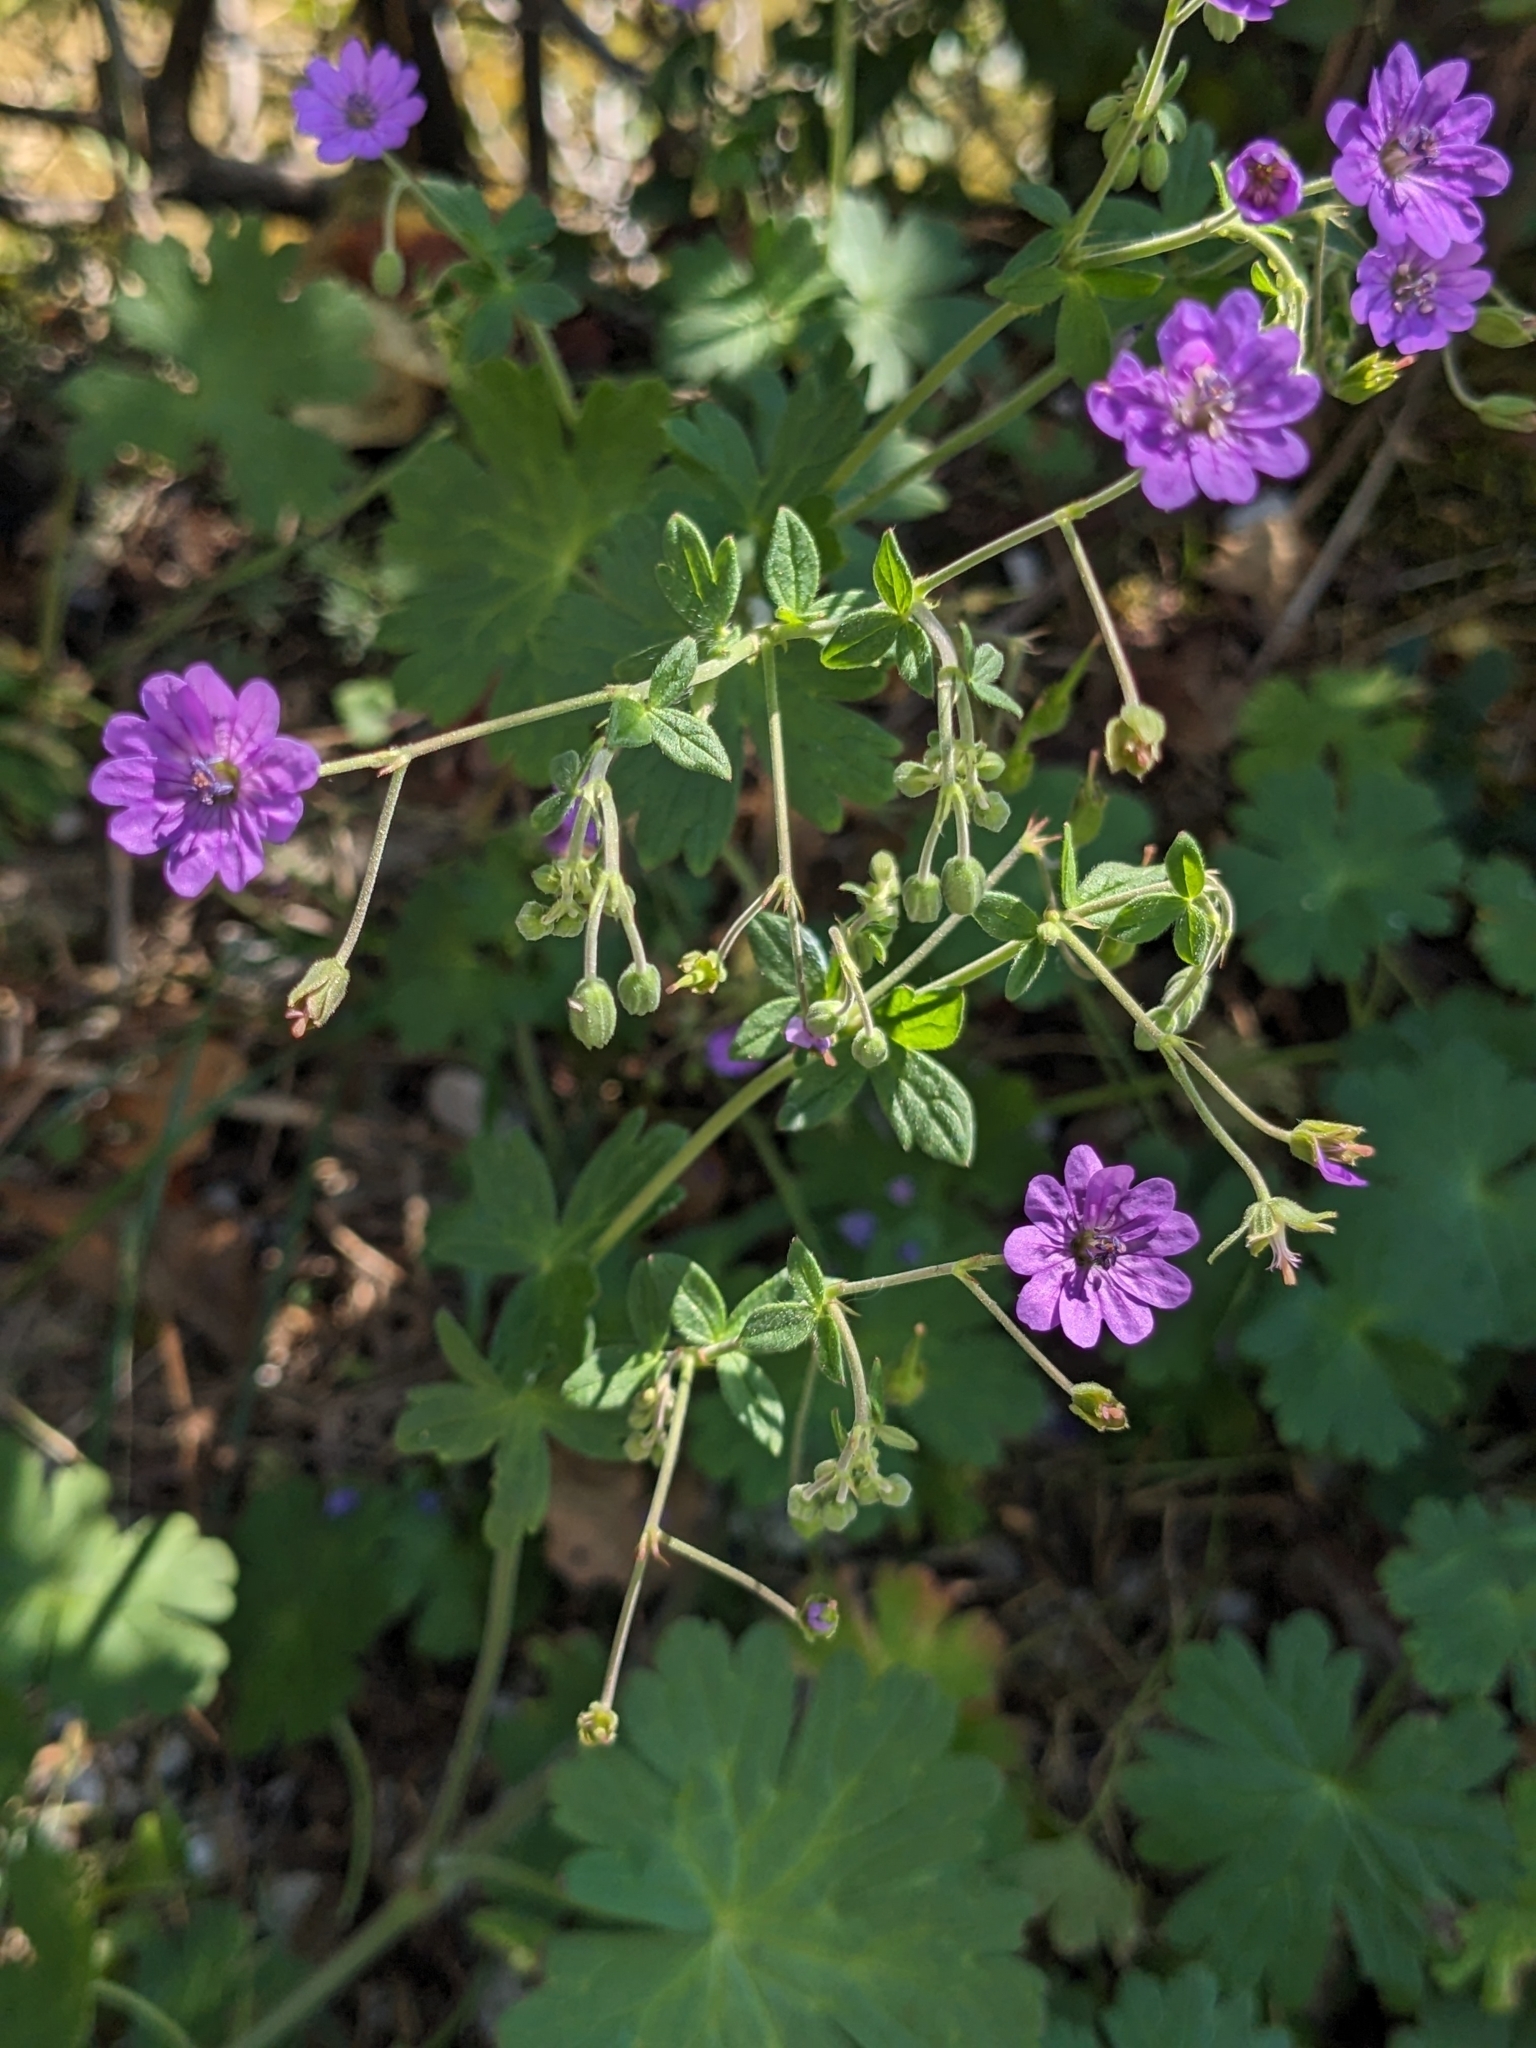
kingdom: Plantae
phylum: Tracheophyta
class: Magnoliopsida
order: Geraniales
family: Geraniaceae
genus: Geranium
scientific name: Geranium pyrenaicum
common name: Hedgerow crane's-bill
